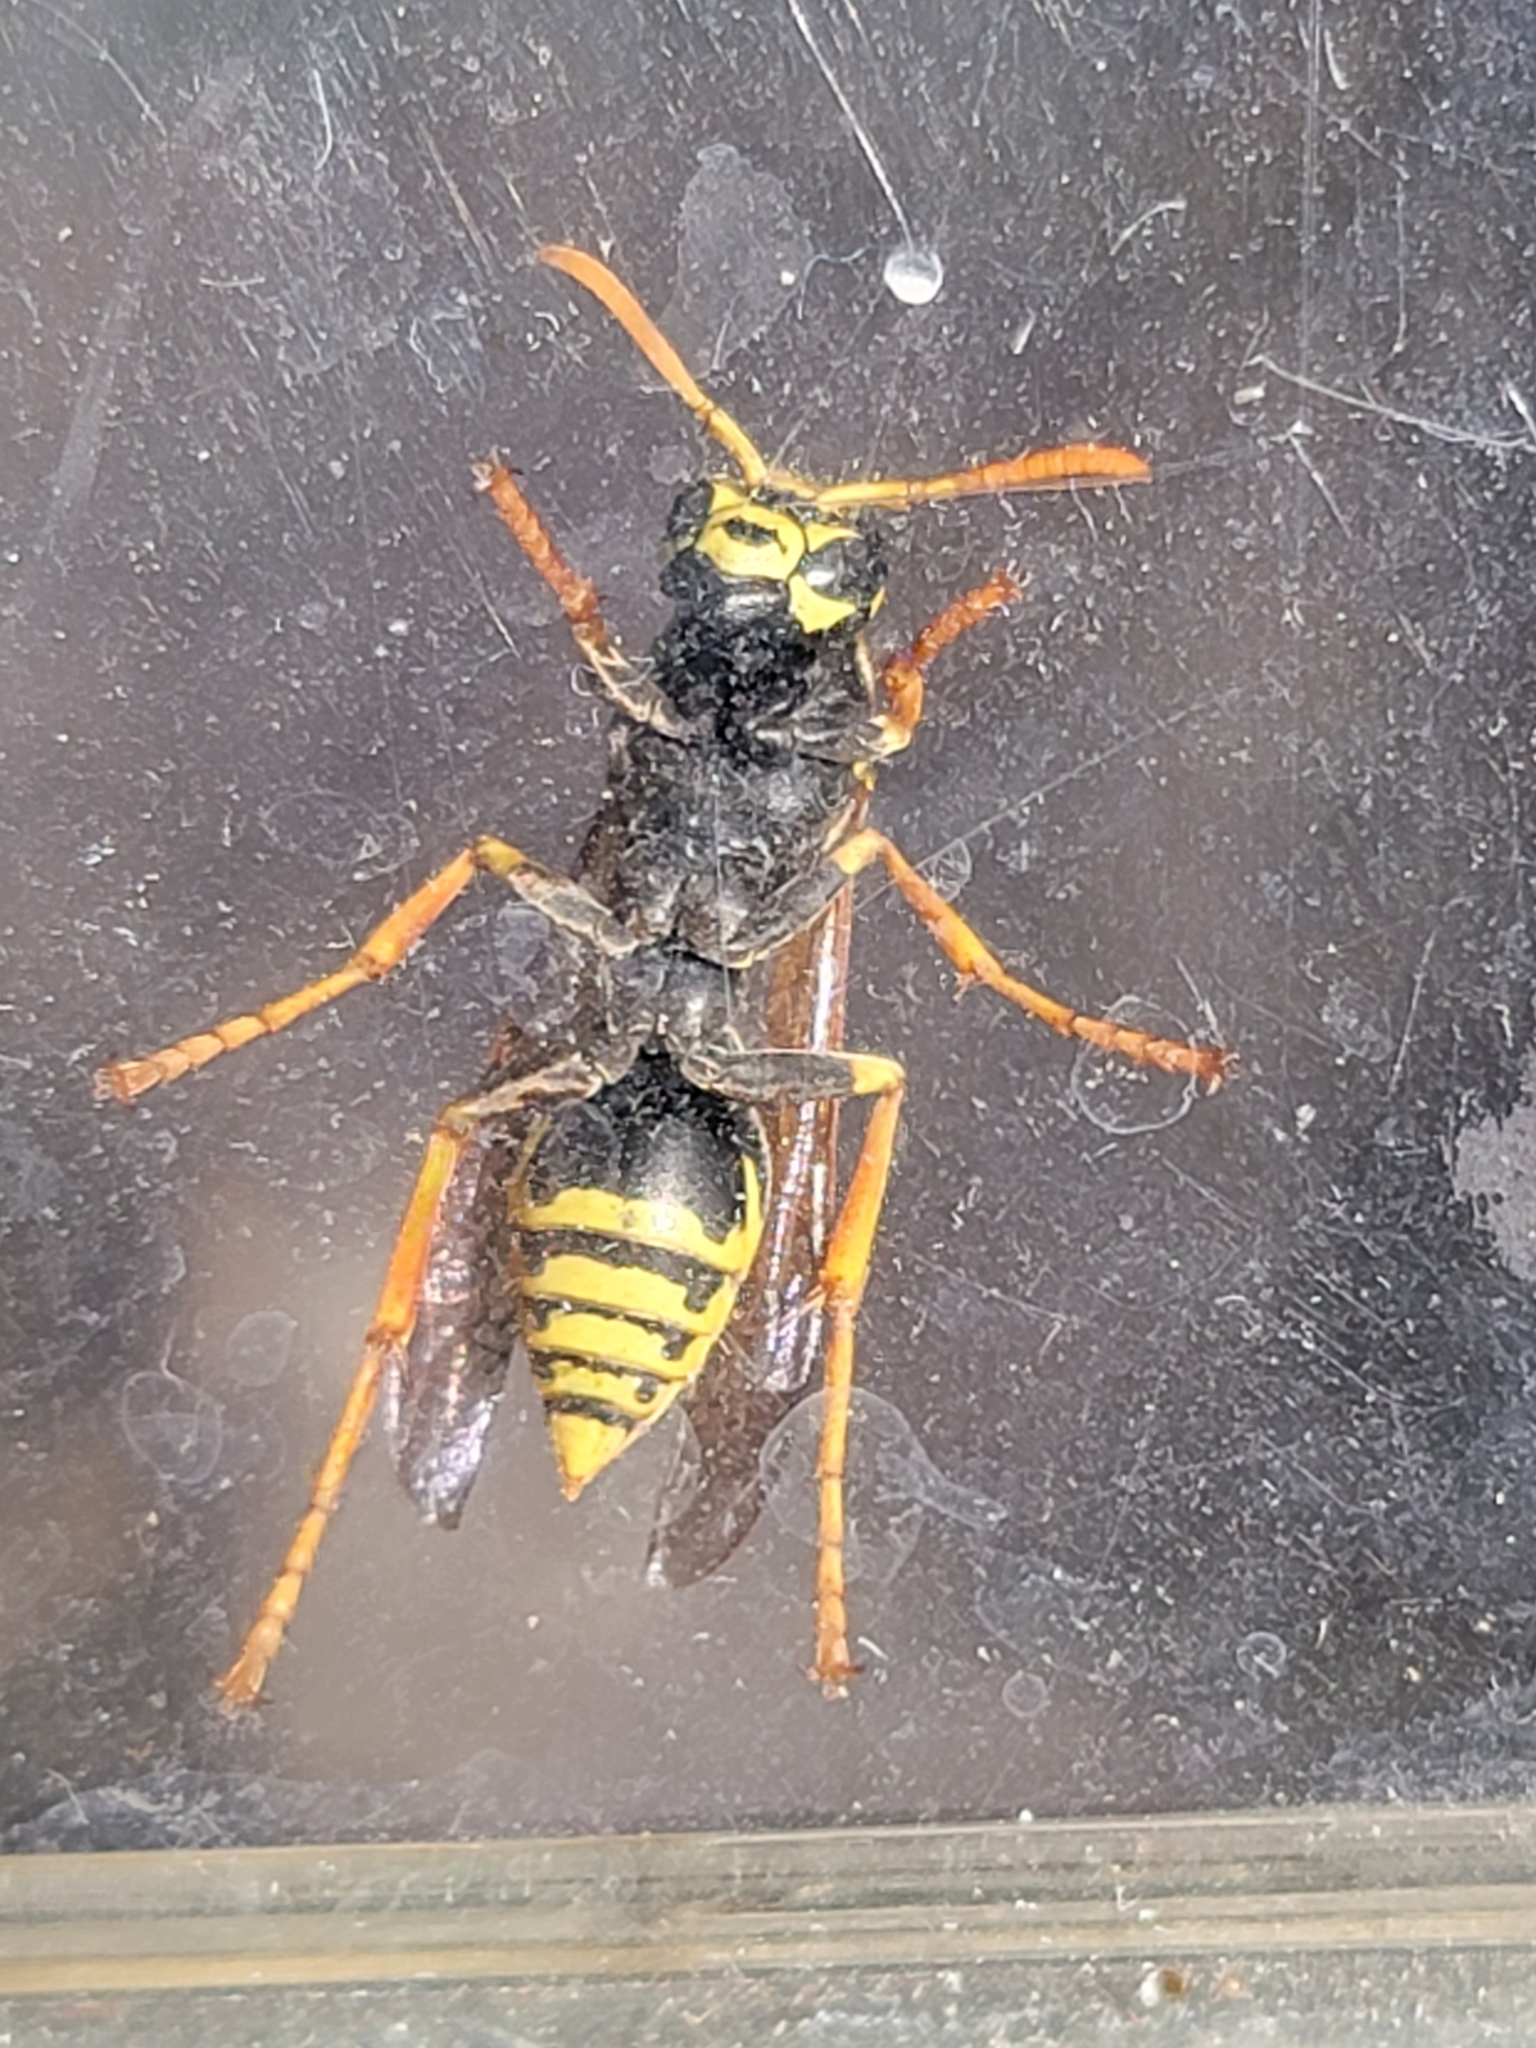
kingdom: Animalia
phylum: Arthropoda
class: Insecta
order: Hymenoptera
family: Eumenidae
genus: Polistes
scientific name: Polistes dominula
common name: Paper wasp
